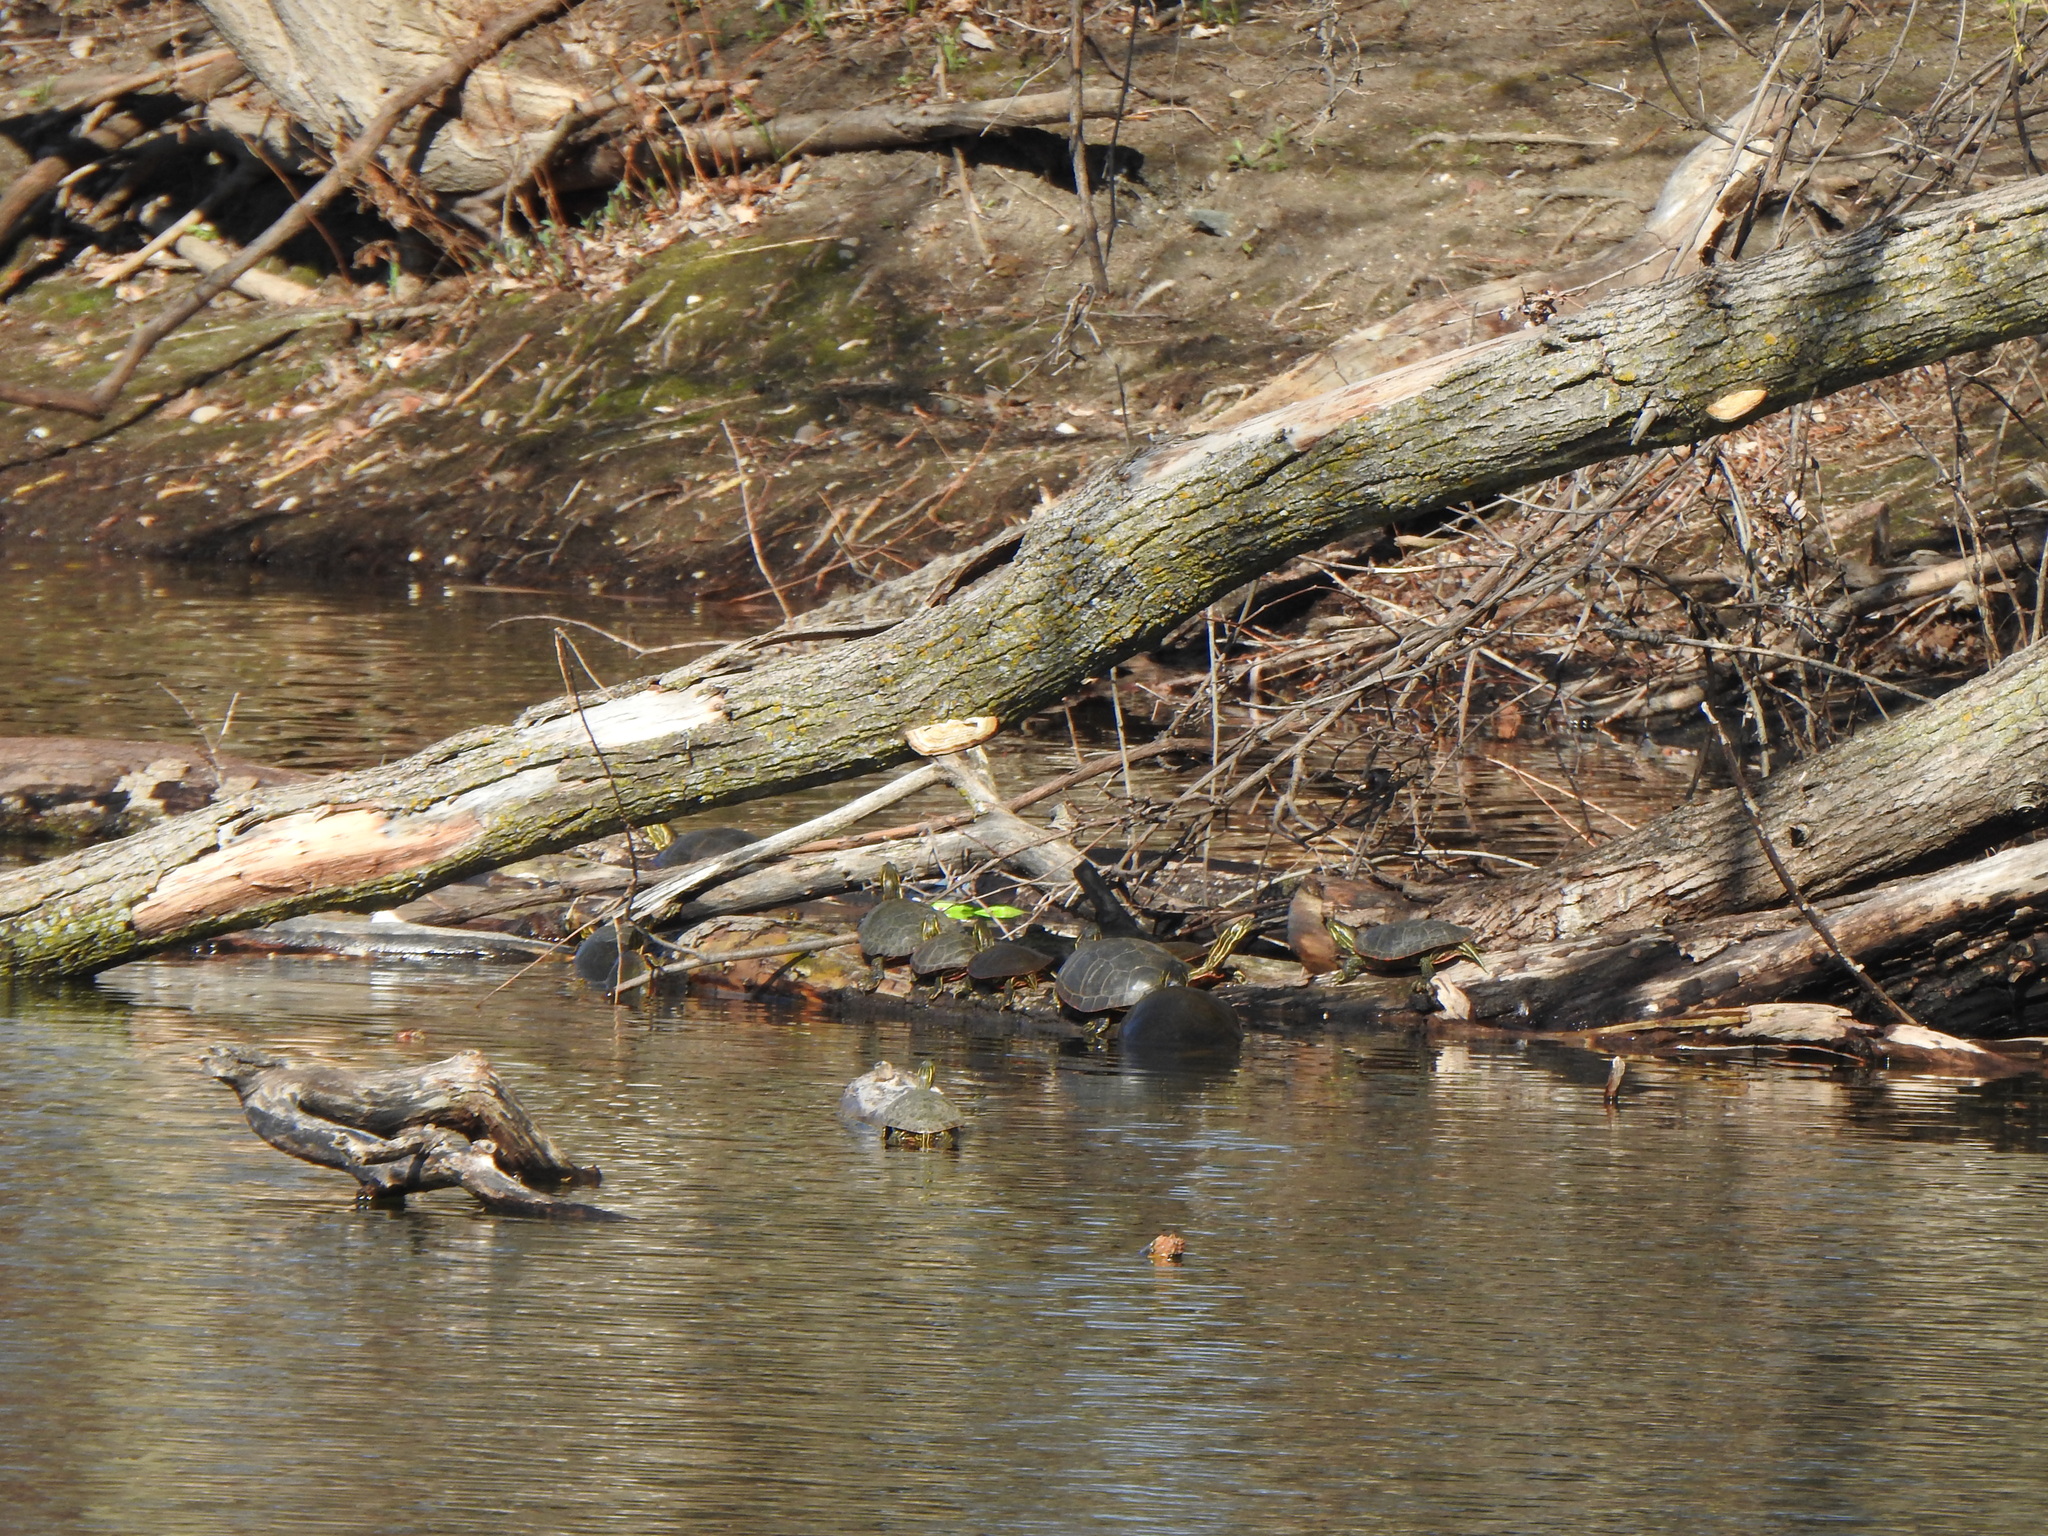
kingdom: Animalia
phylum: Chordata
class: Testudines
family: Emydidae
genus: Chrysemys
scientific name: Chrysemys picta
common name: Painted turtle
